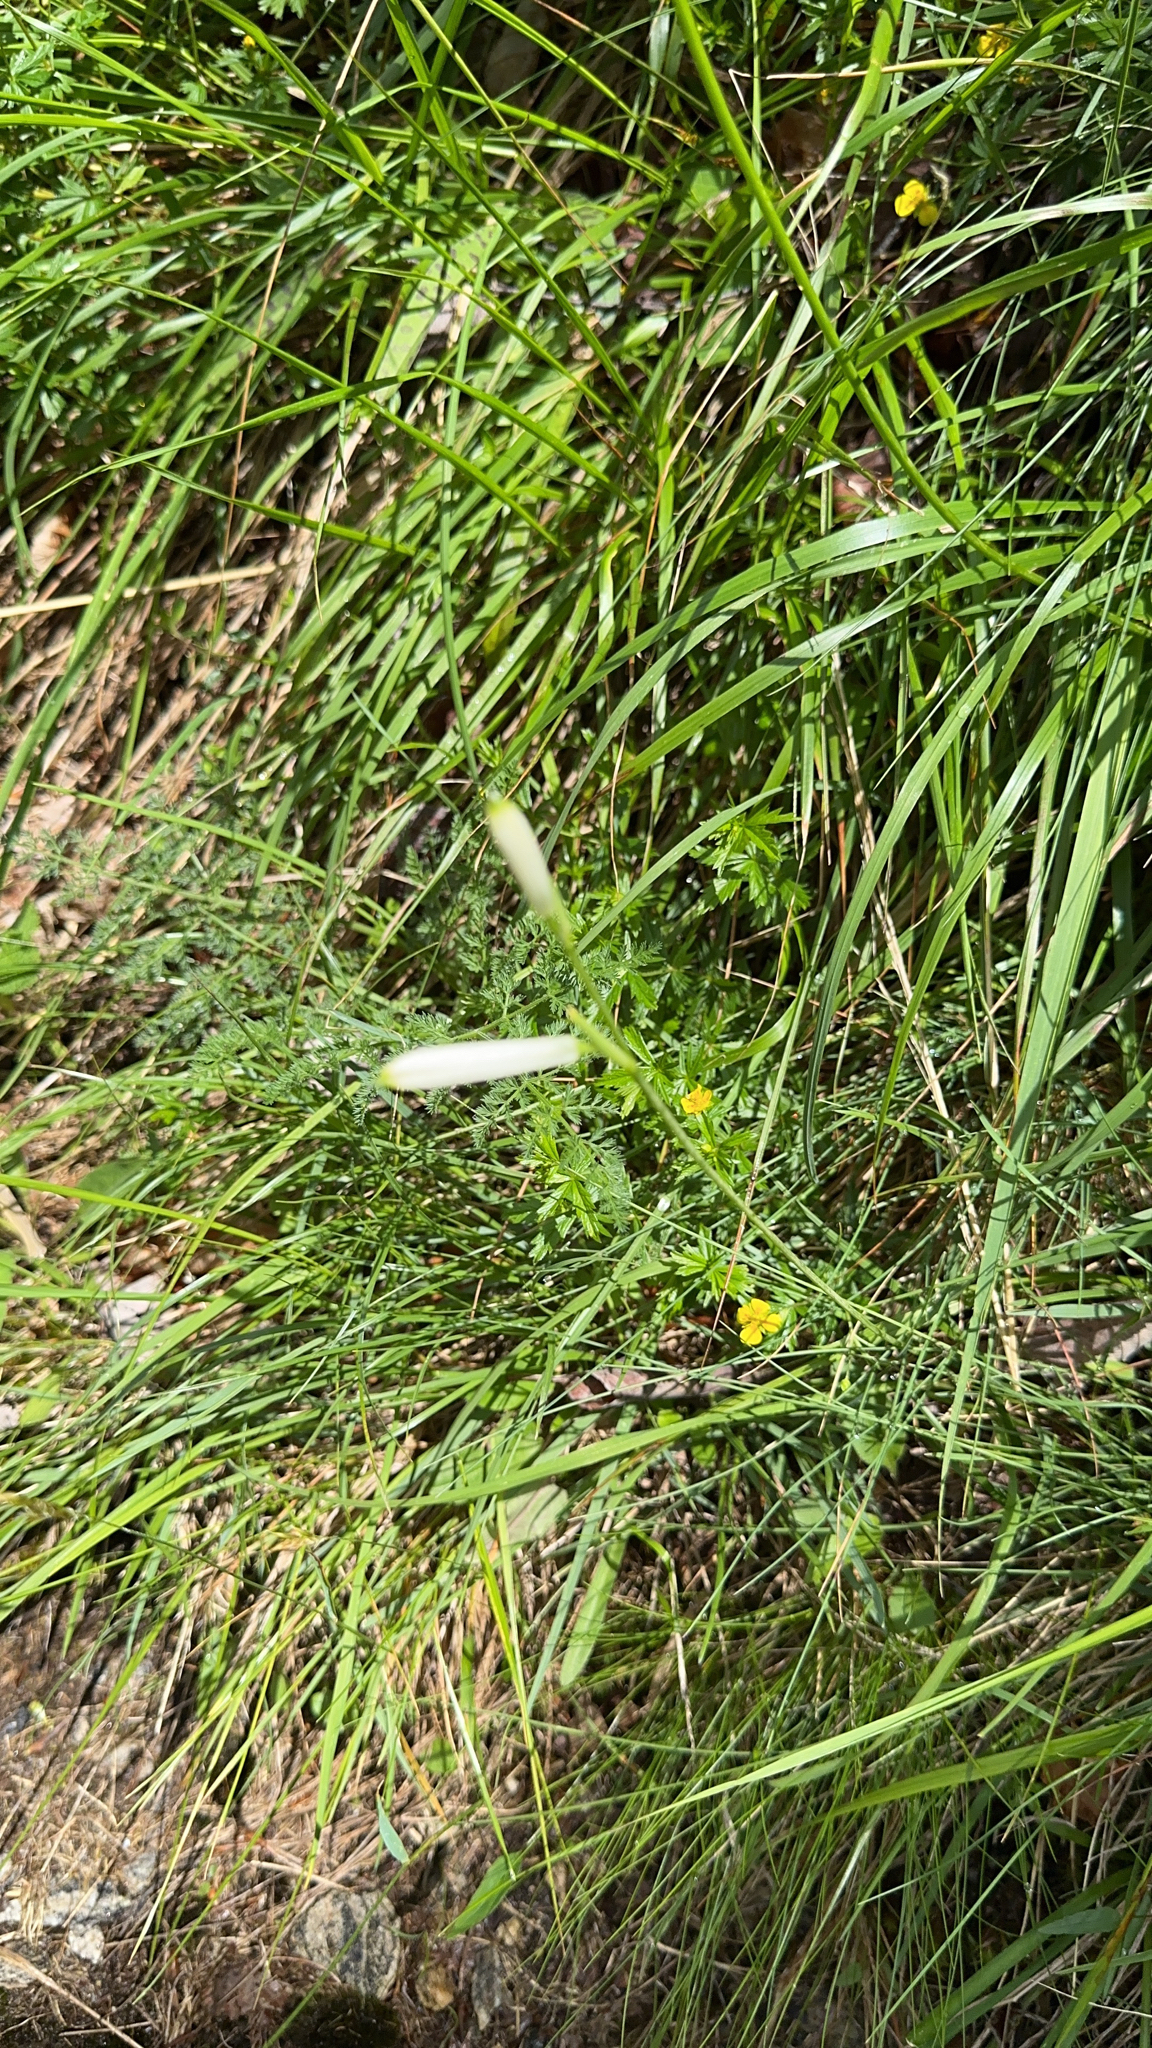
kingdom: Plantae
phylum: Tracheophyta
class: Liliopsida
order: Asparagales
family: Asparagaceae
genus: Paradisea
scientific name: Paradisea liliastrum
